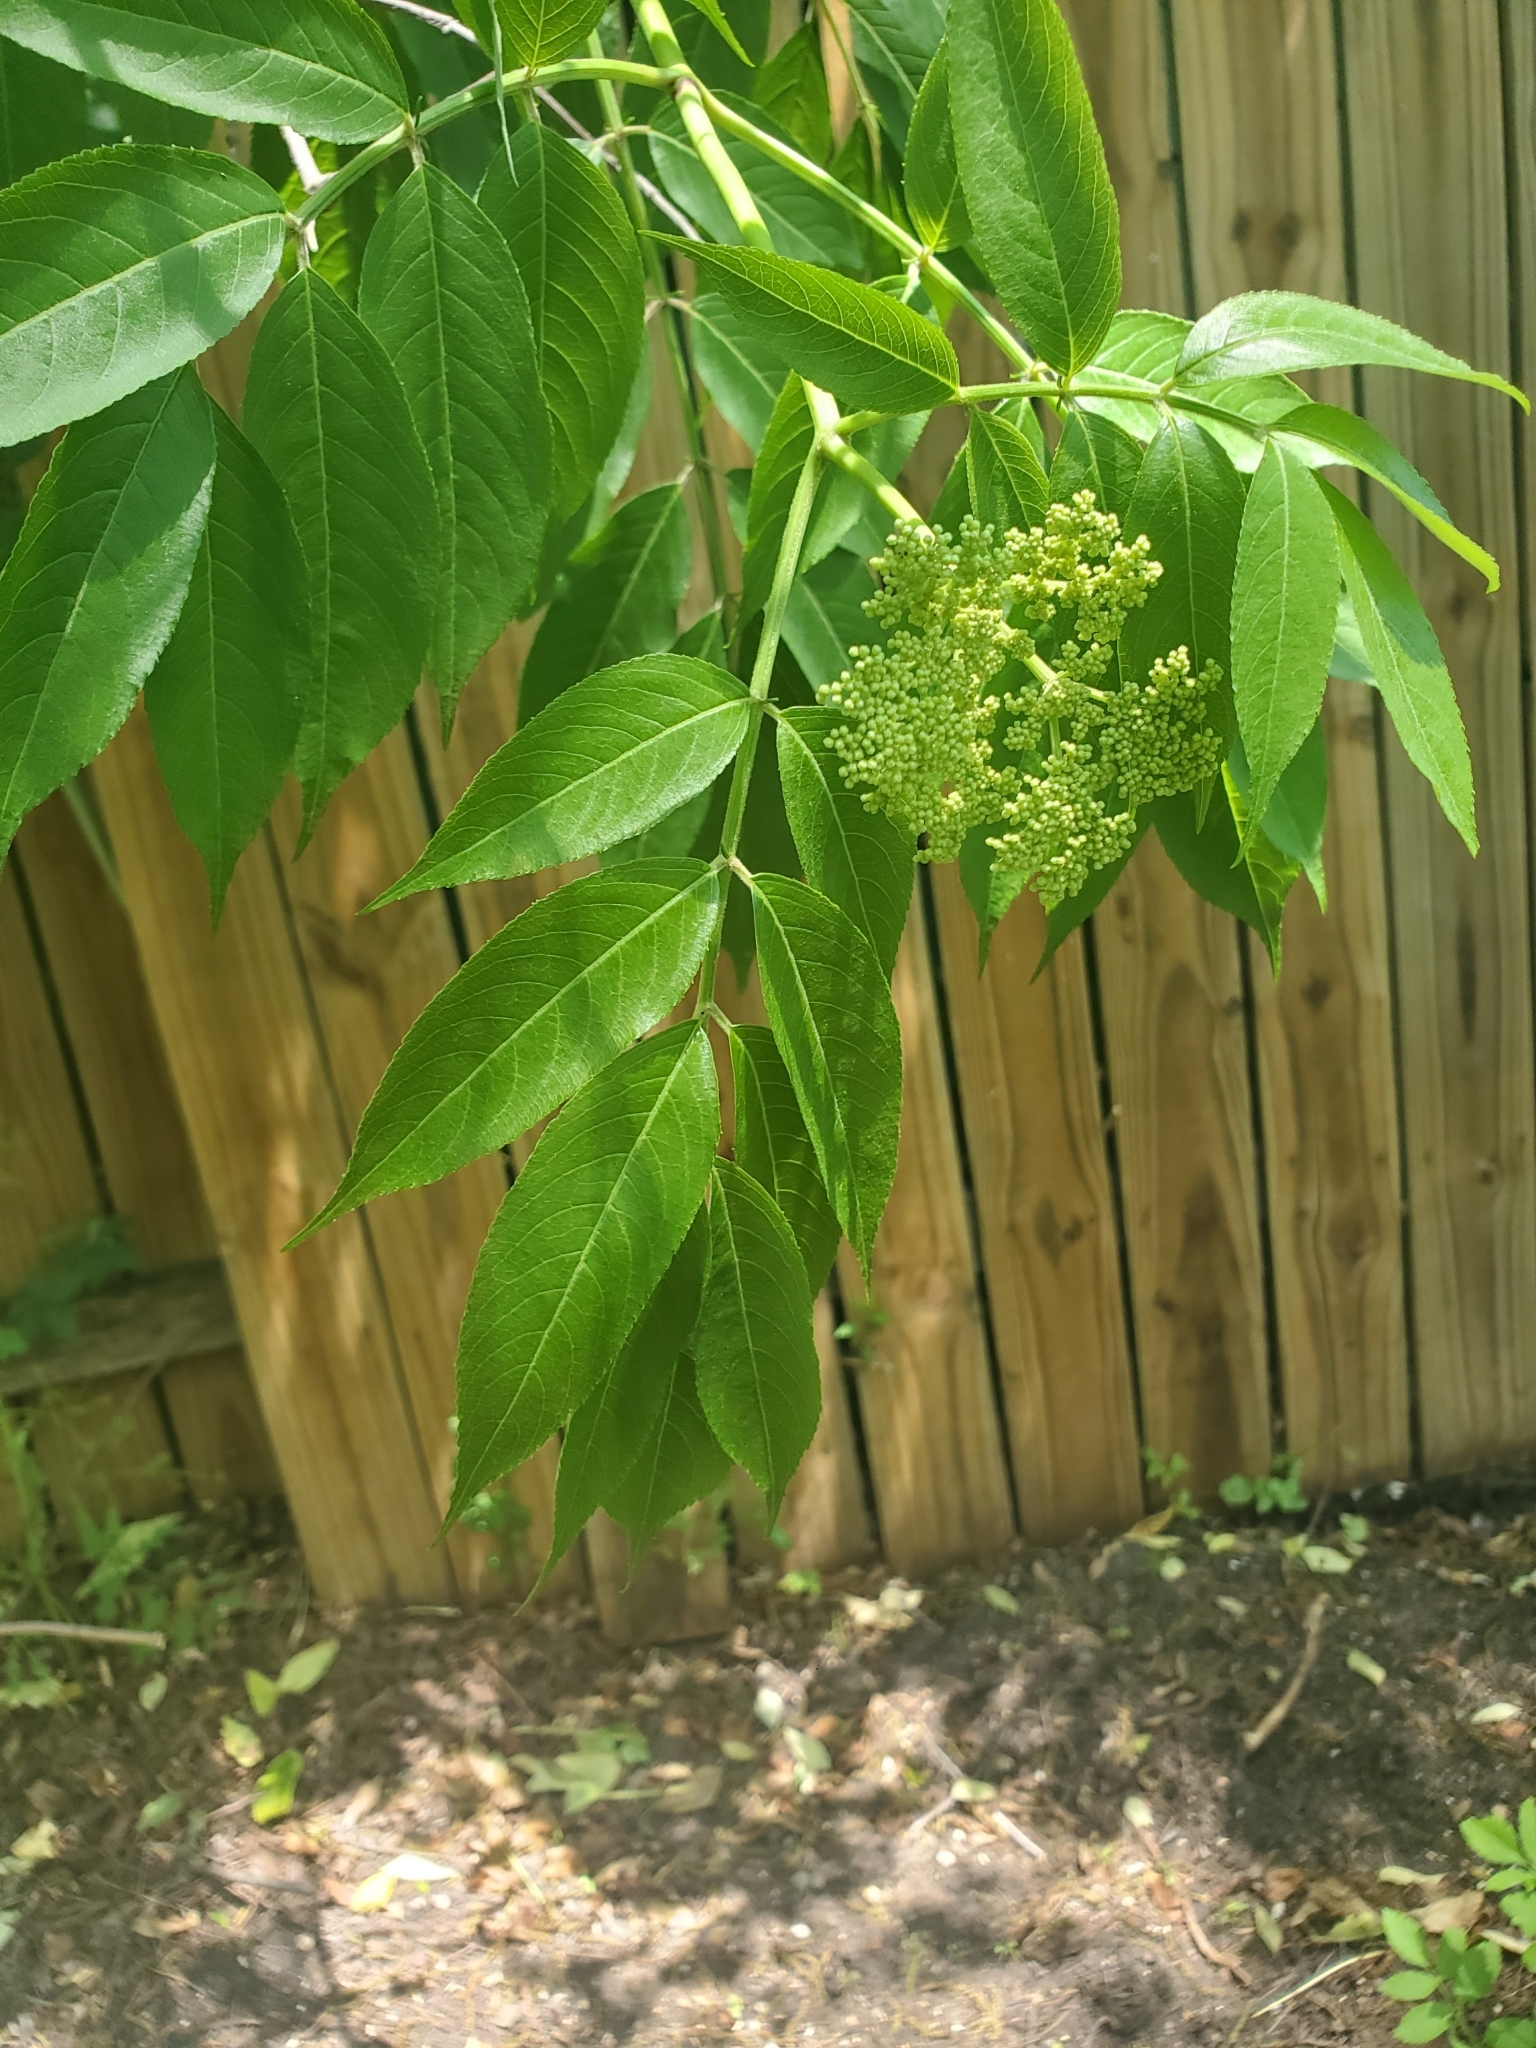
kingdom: Plantae
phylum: Tracheophyta
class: Magnoliopsida
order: Dipsacales
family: Viburnaceae
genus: Sambucus
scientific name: Sambucus canadensis
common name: American elder
